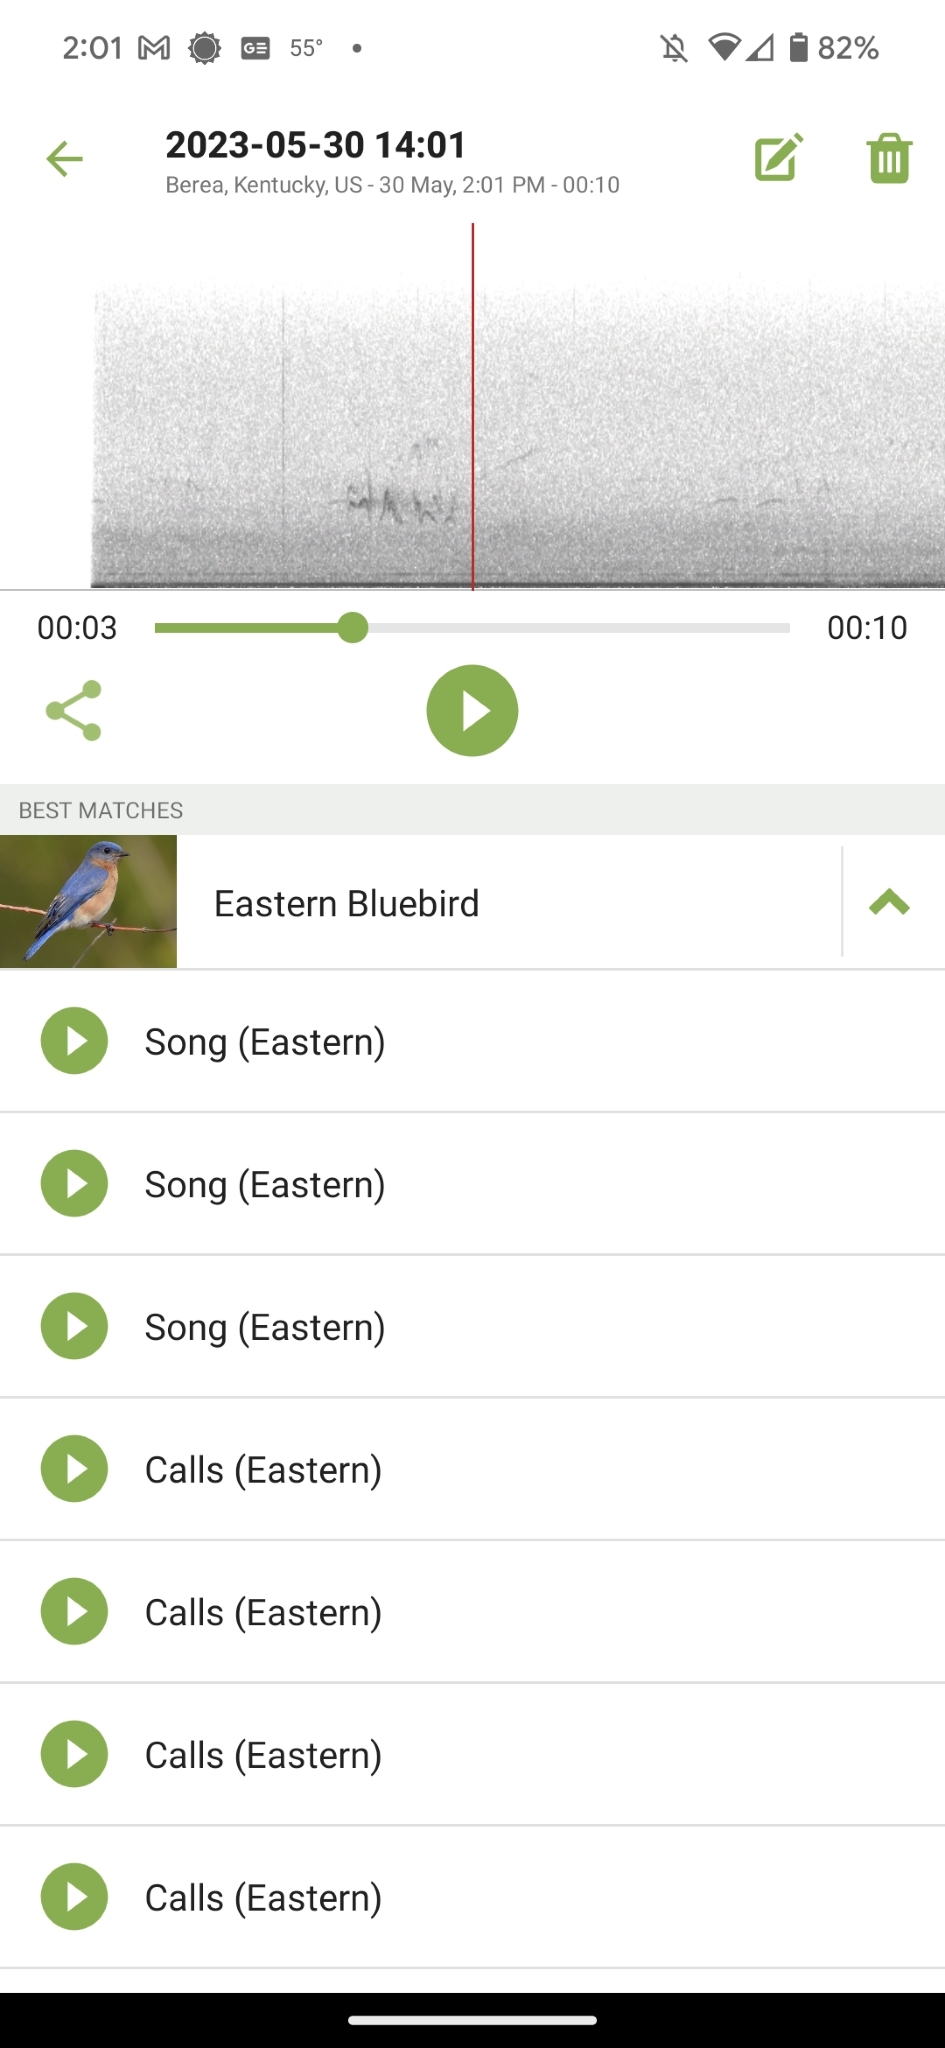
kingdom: Animalia
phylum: Chordata
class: Aves
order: Passeriformes
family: Turdidae
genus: Sialia
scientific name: Sialia sialis
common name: Eastern bluebird
